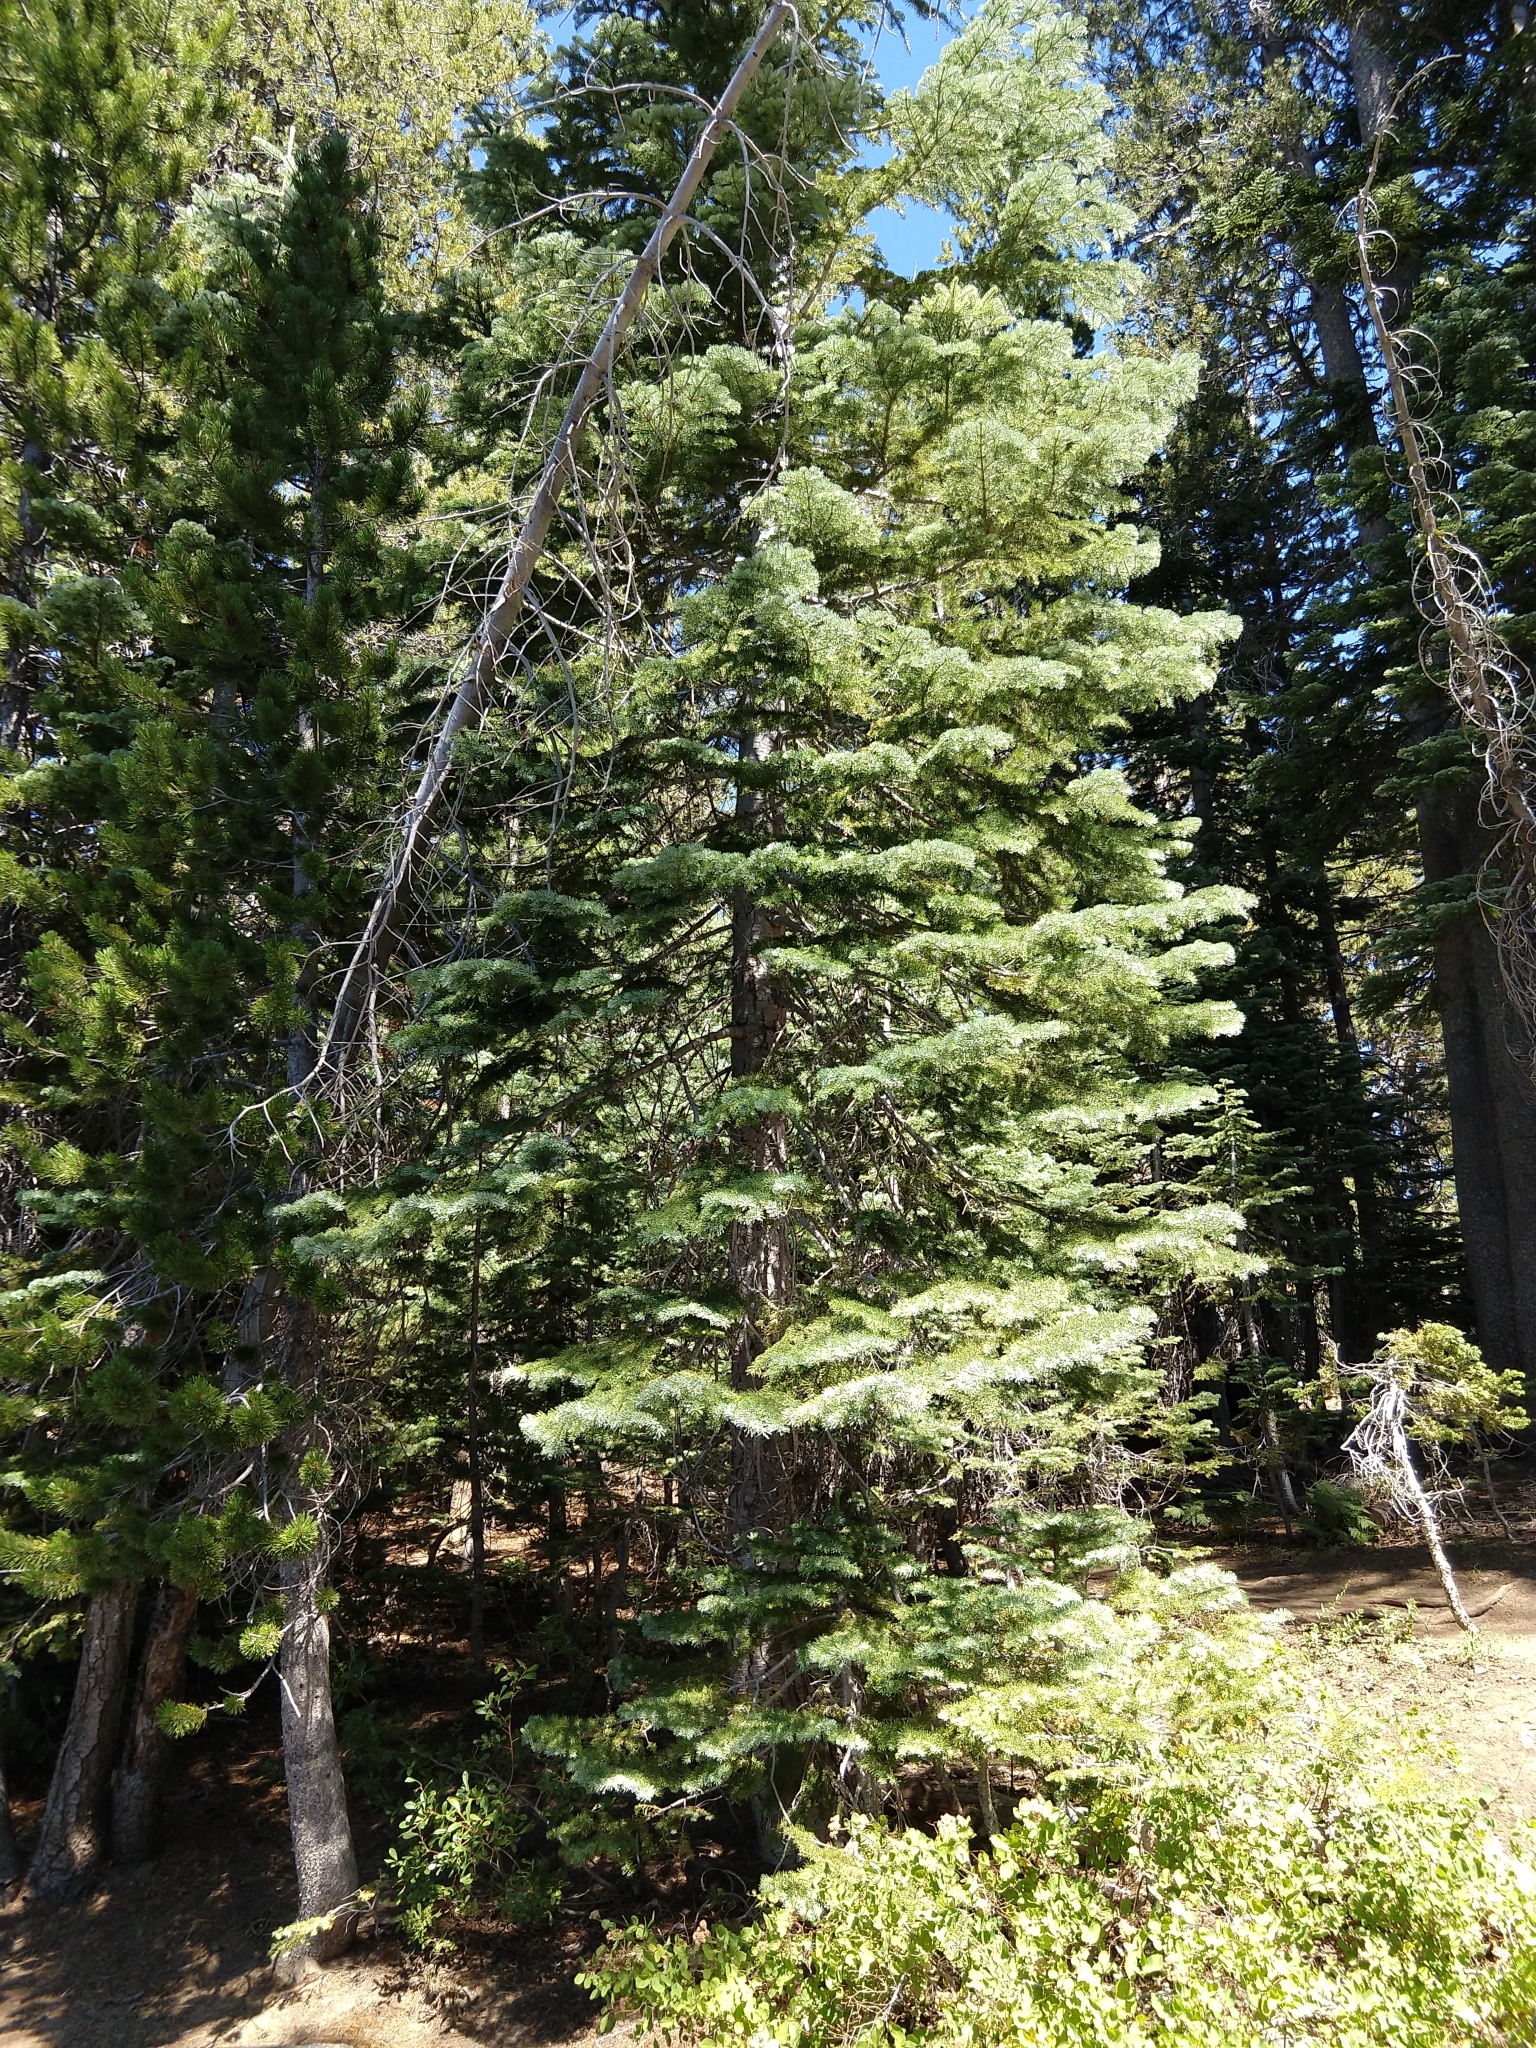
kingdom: Plantae
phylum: Tracheophyta
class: Pinopsida
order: Pinales
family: Pinaceae
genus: Abies
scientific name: Abies magnifica bis
